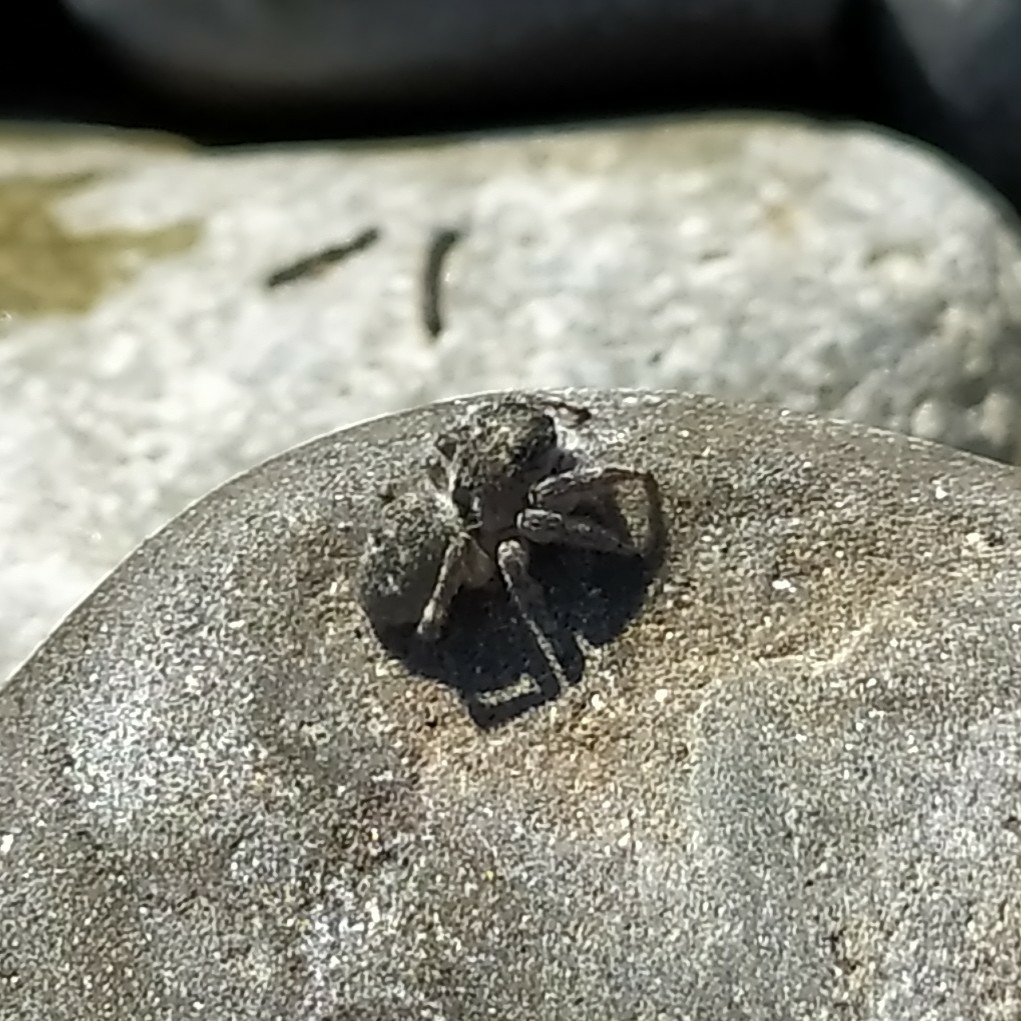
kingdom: Animalia
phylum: Arthropoda
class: Arachnida
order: Araneae
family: Salticidae
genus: Attulus
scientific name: Attulus damini
